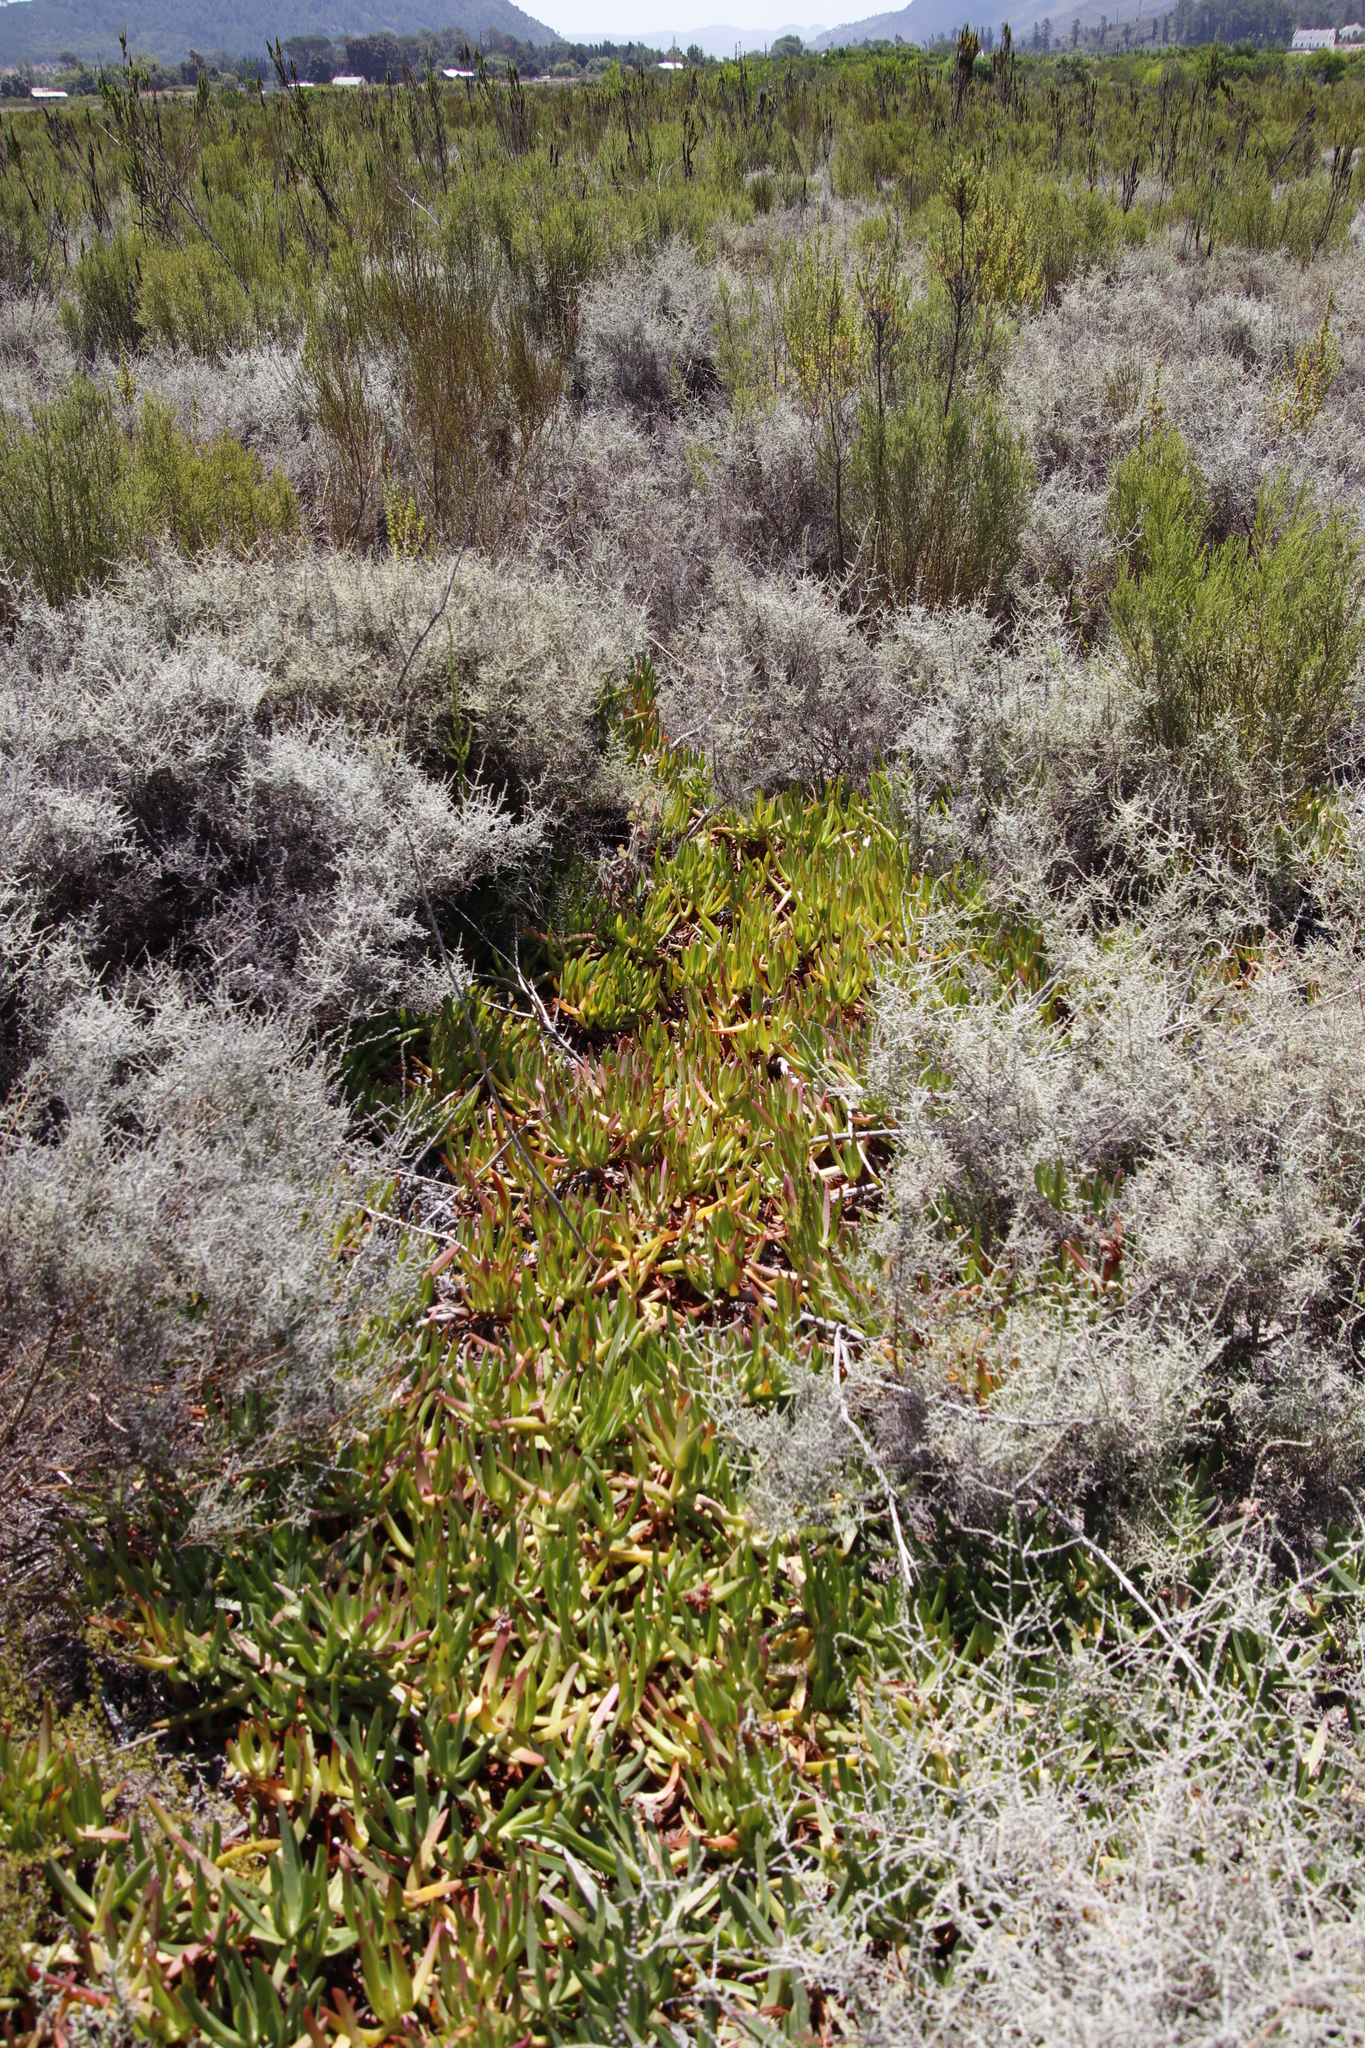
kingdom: Plantae
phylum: Tracheophyta
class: Magnoliopsida
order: Caryophyllales
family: Aizoaceae
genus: Carpobrotus
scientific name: Carpobrotus edulis
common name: Hottentot-fig
